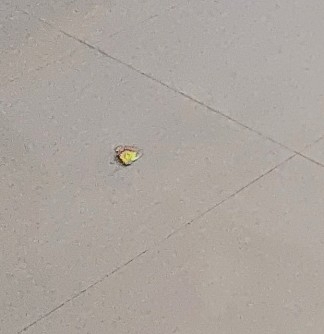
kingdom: Animalia
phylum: Arthropoda
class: Insecta
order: Lepidoptera
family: Pieridae
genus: Delias
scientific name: Delias eucharis
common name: Common jezebel
